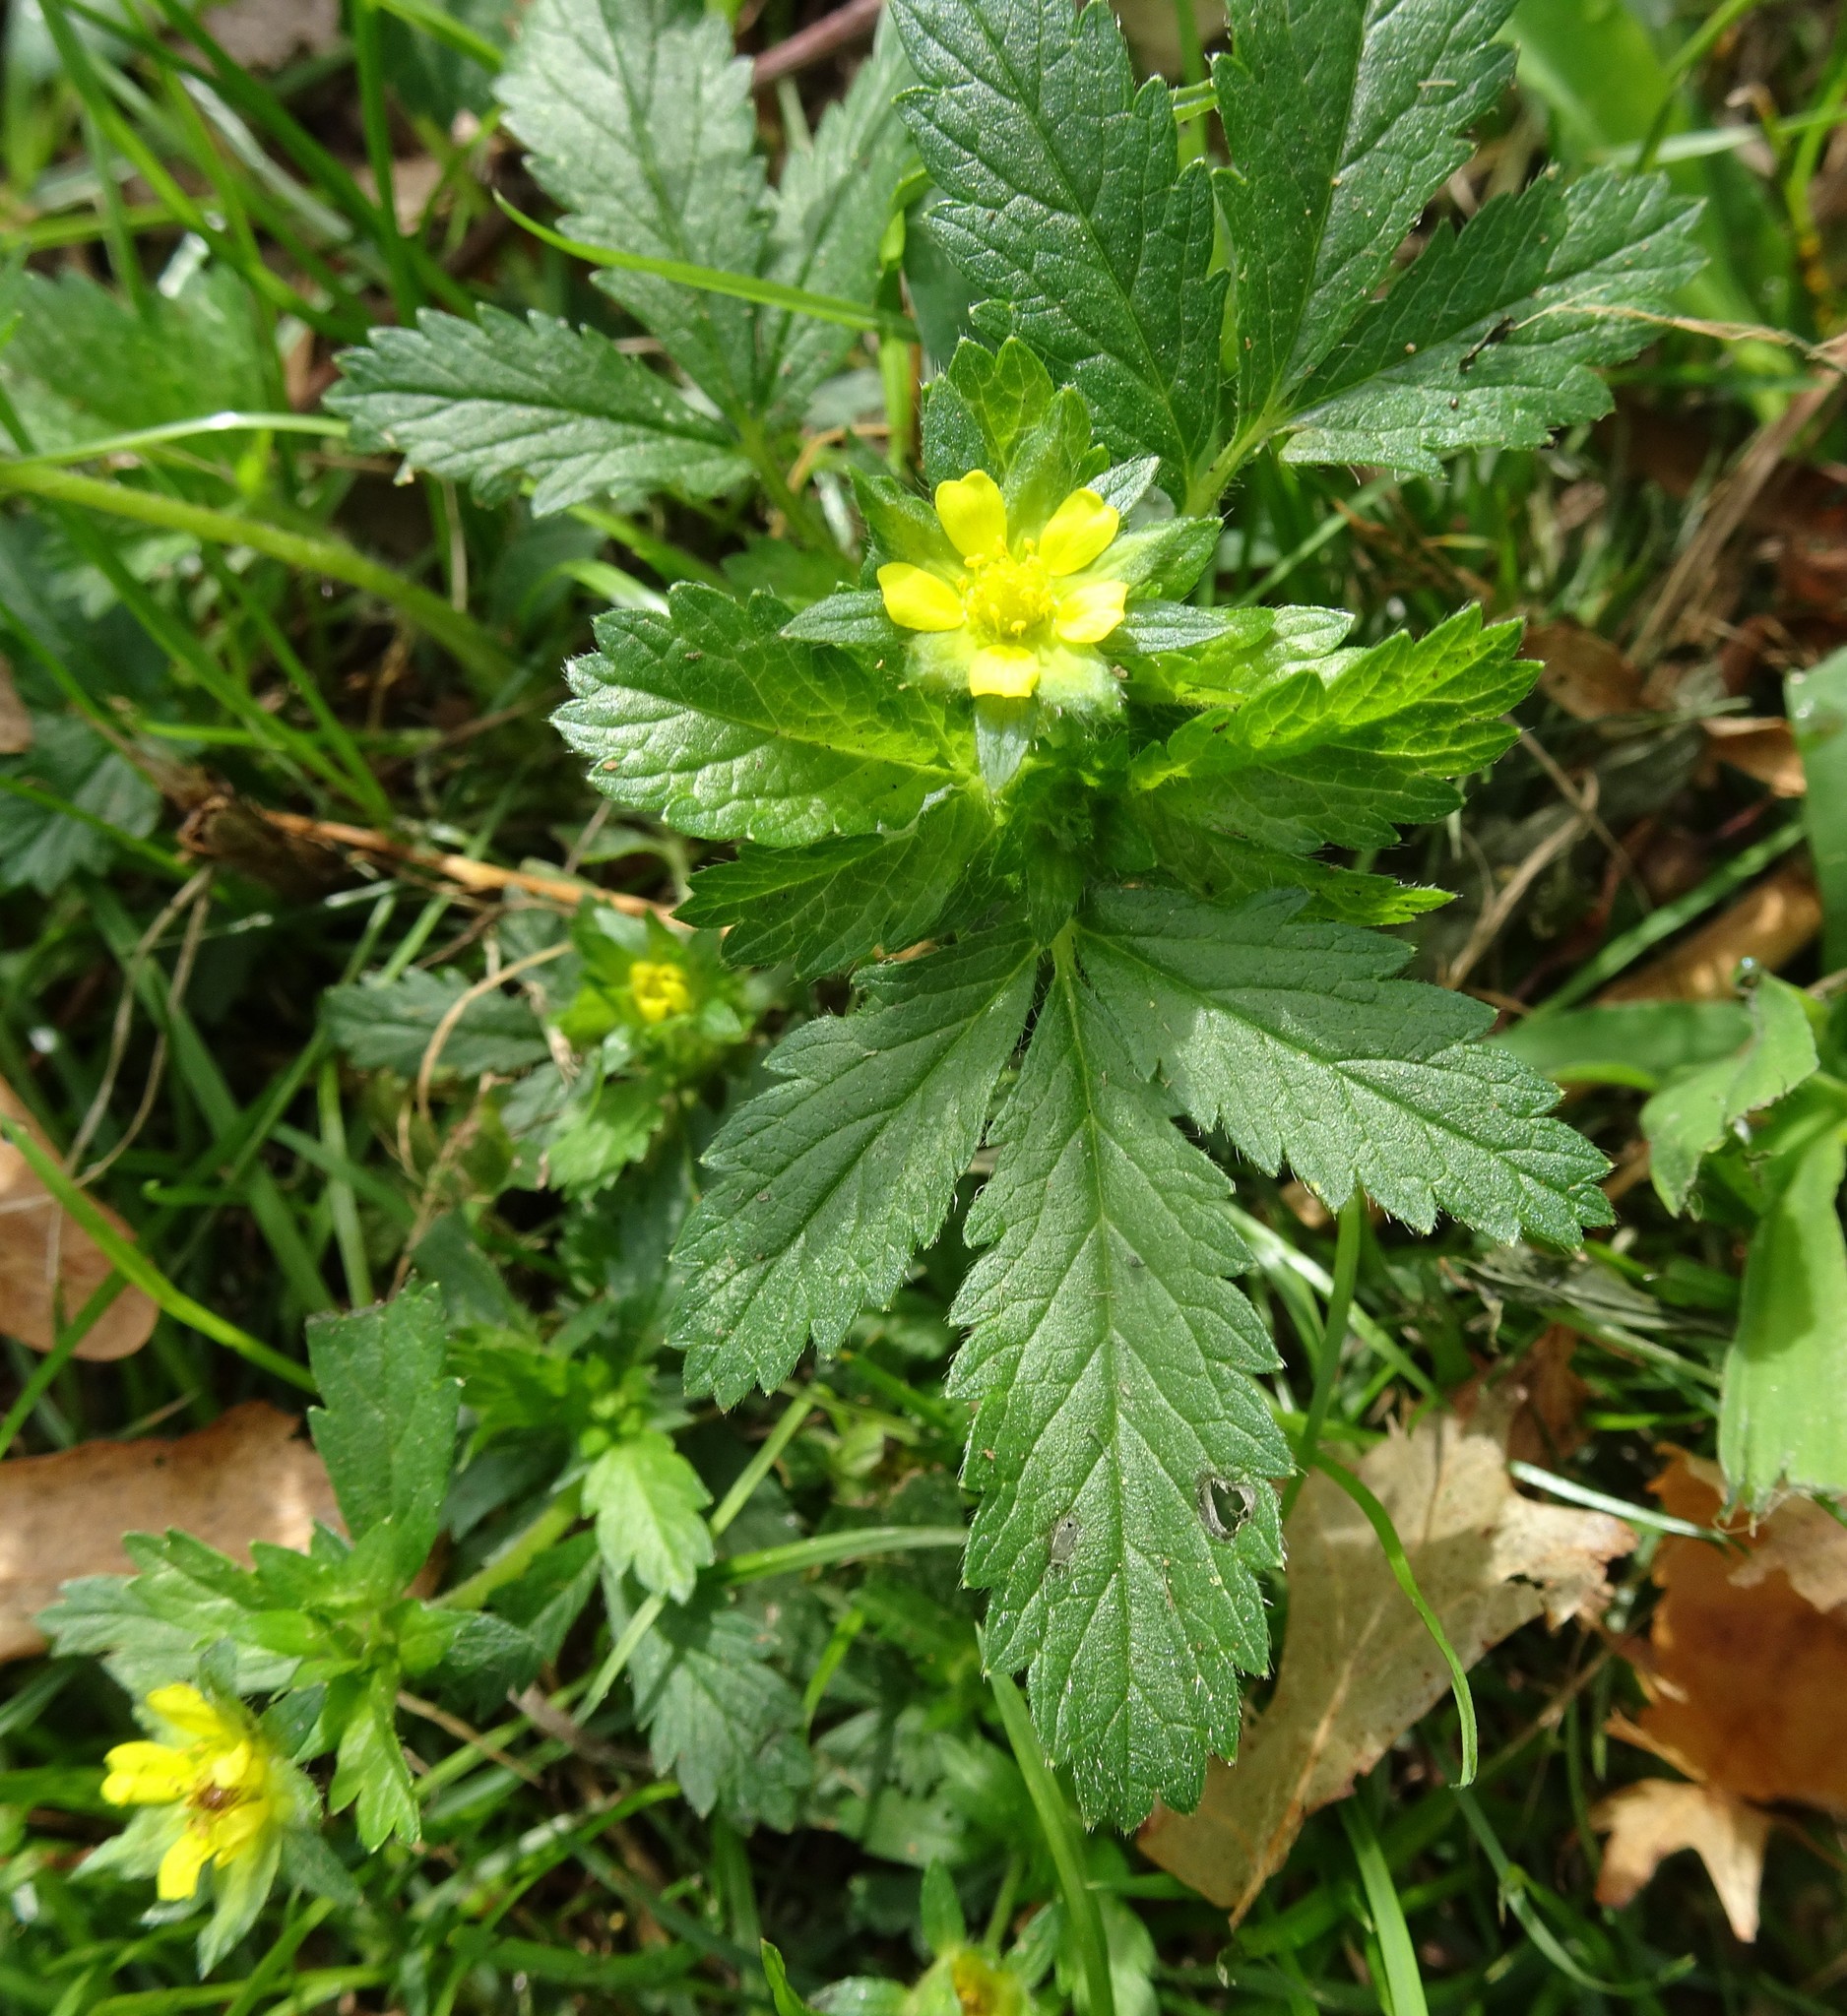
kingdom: Plantae
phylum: Tracheophyta
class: Magnoliopsida
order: Rosales
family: Rosaceae
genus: Potentilla
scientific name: Potentilla norvegica
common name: Ternate-leaved cinquefoil
